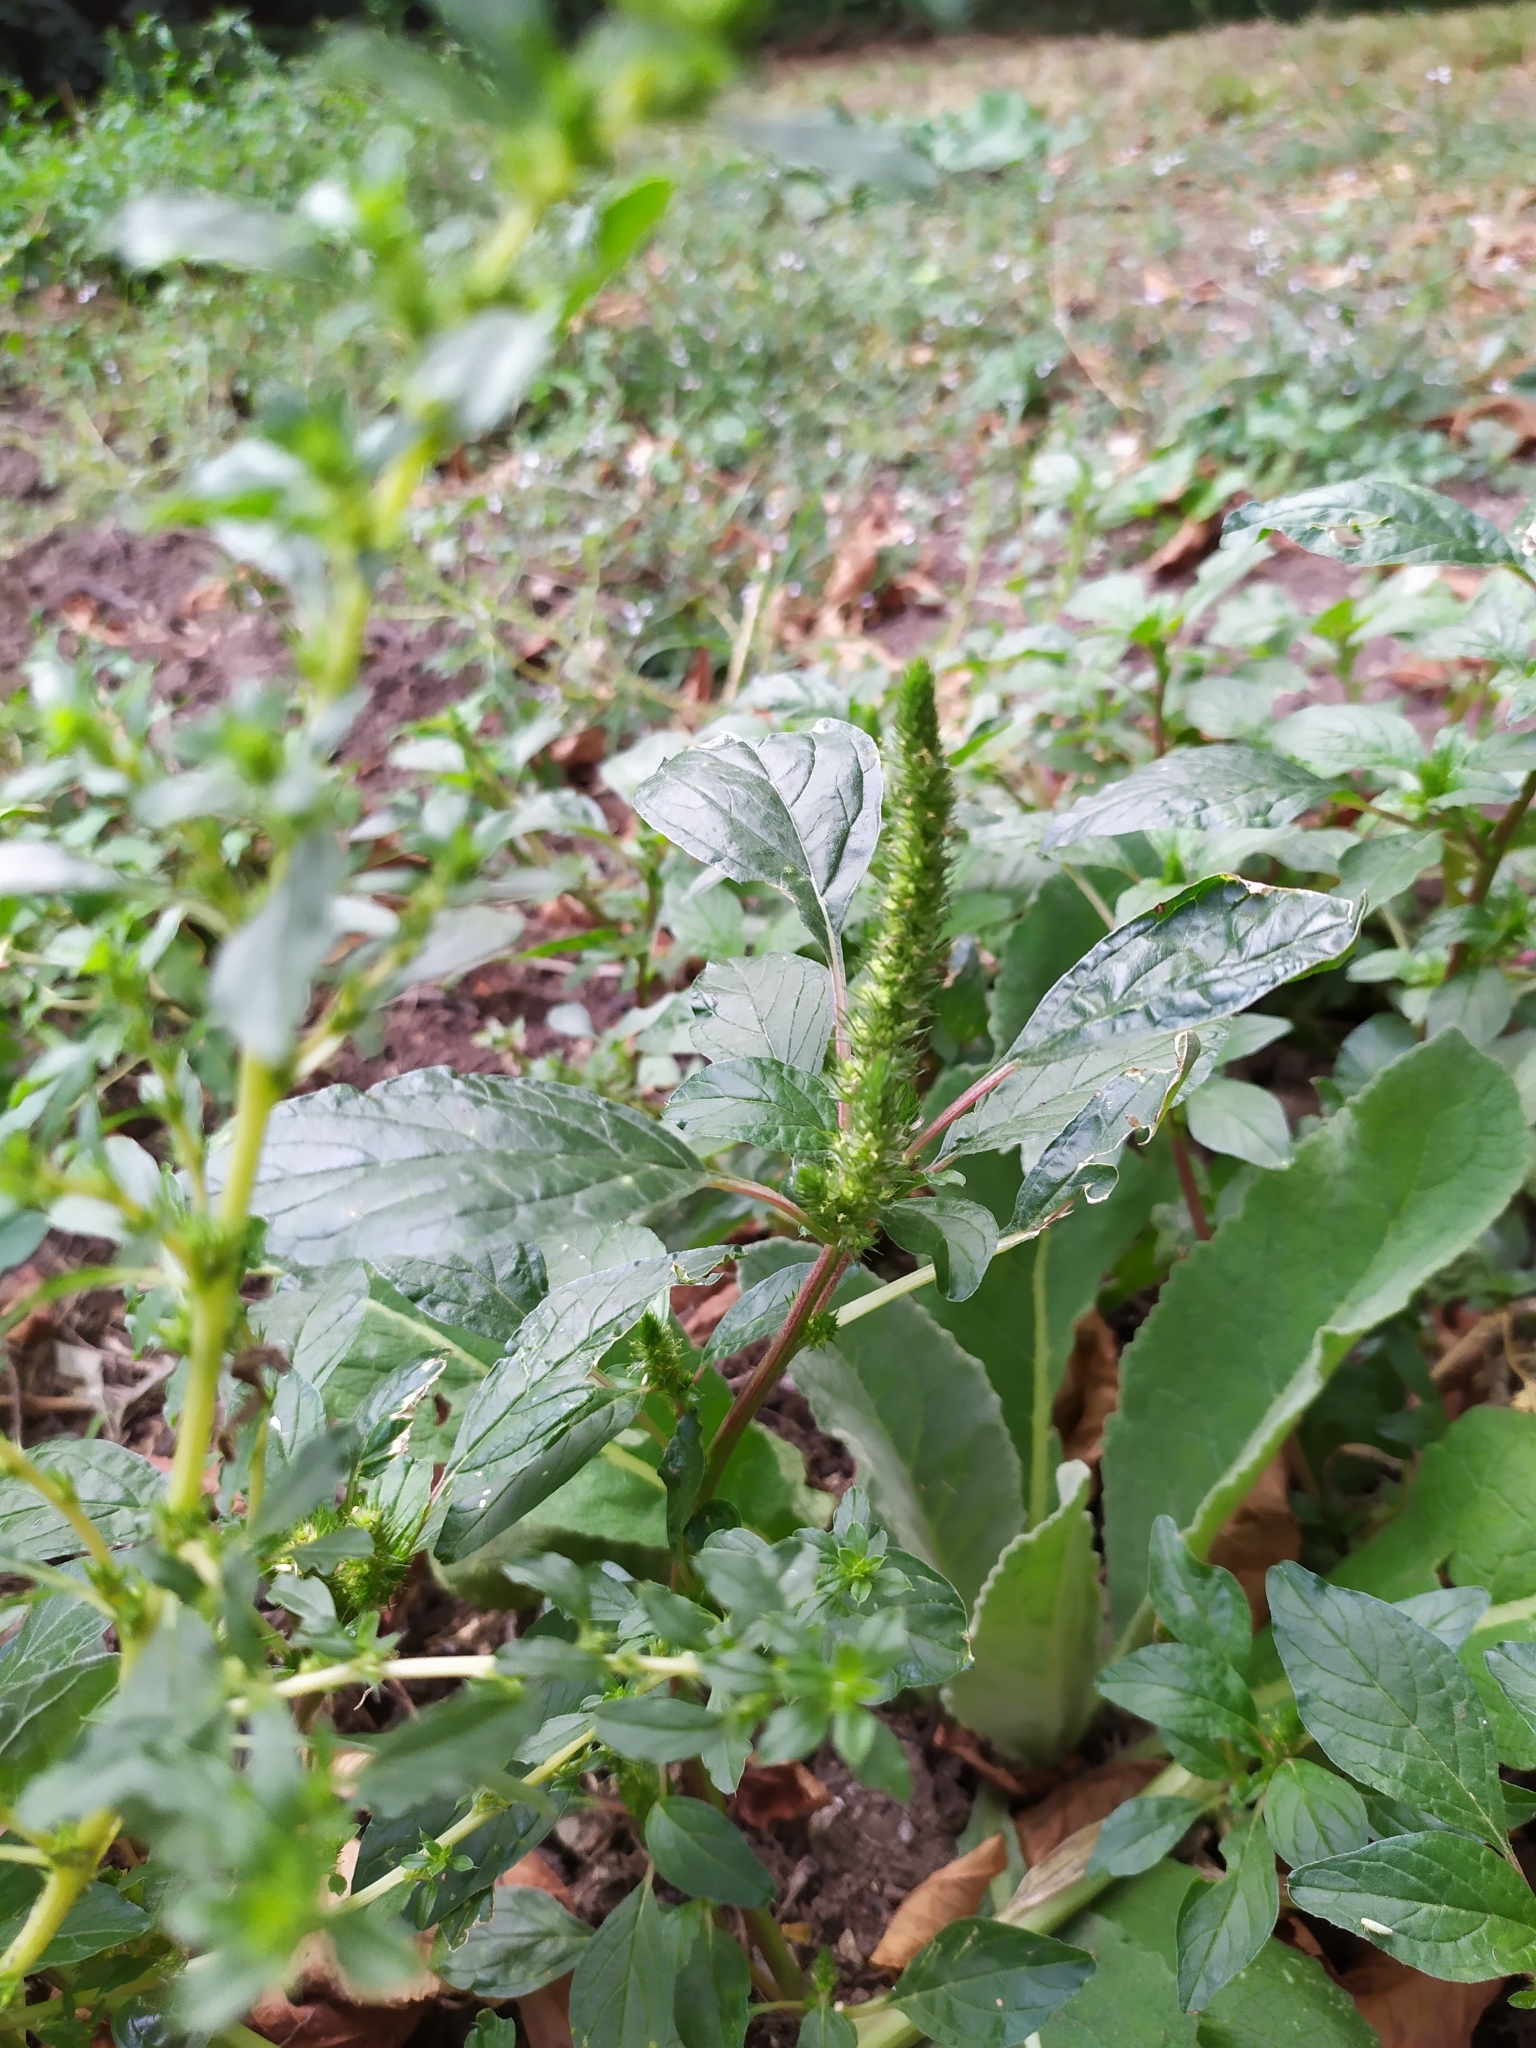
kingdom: Plantae
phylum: Tracheophyta
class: Magnoliopsida
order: Caryophyllales
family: Amaranthaceae
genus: Amaranthus
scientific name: Amaranthus powellii
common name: Powell's amaranth
